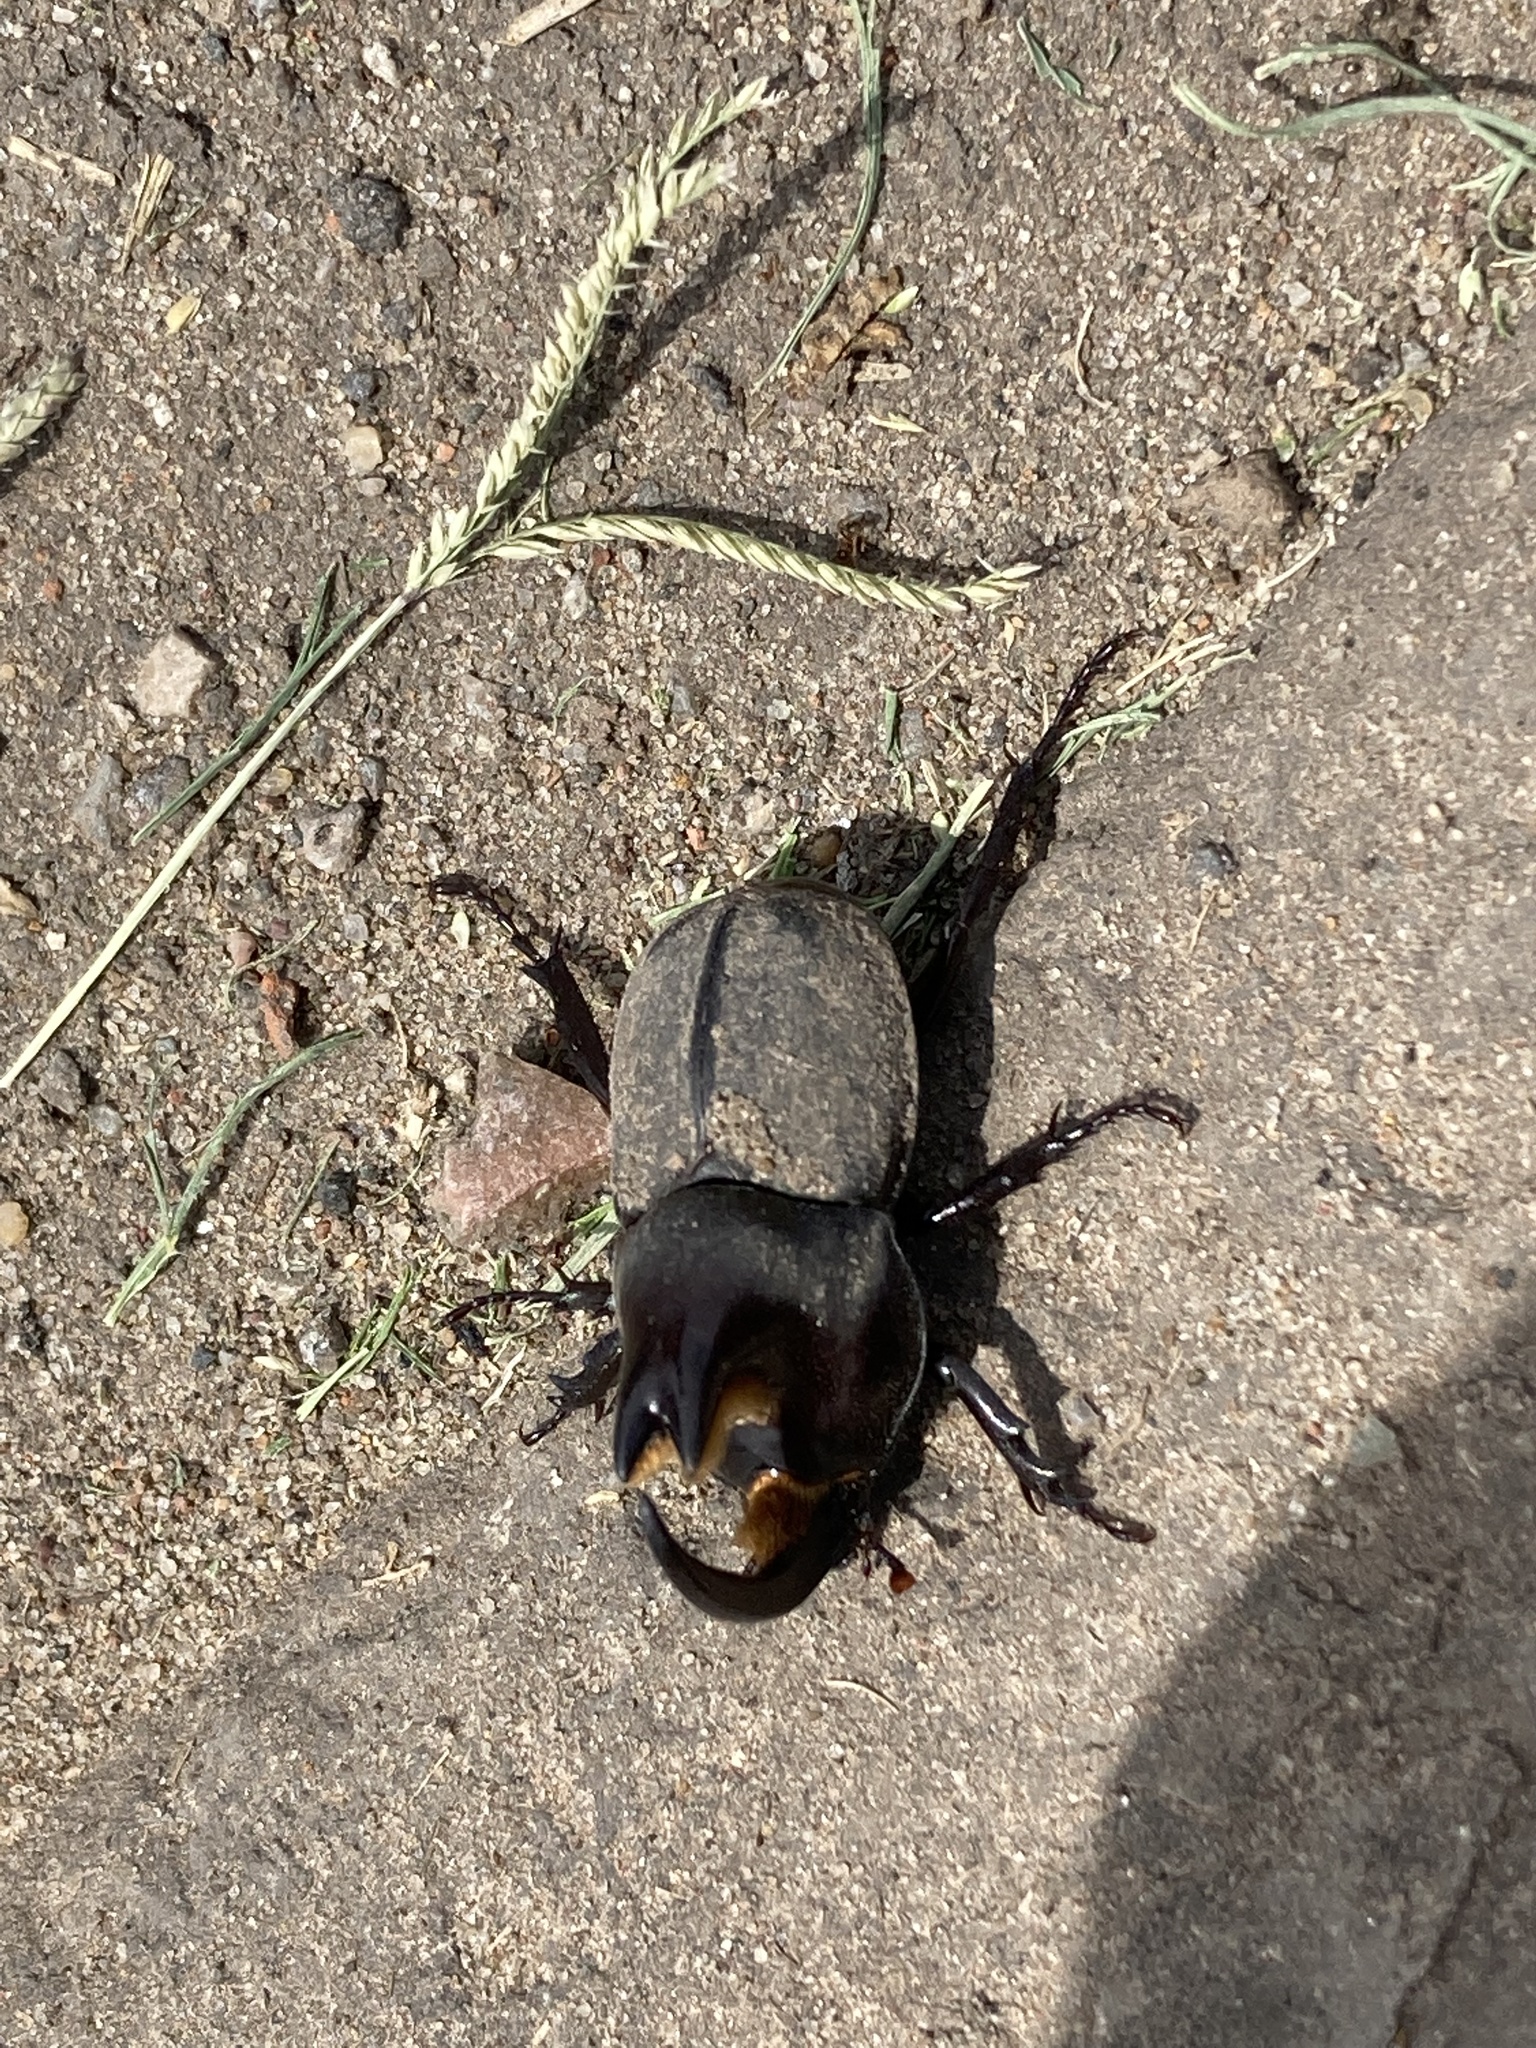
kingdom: Animalia
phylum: Arthropoda
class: Insecta
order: Coleoptera
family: Scarabaeidae
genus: Diloboderus
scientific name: Diloboderus abderus
